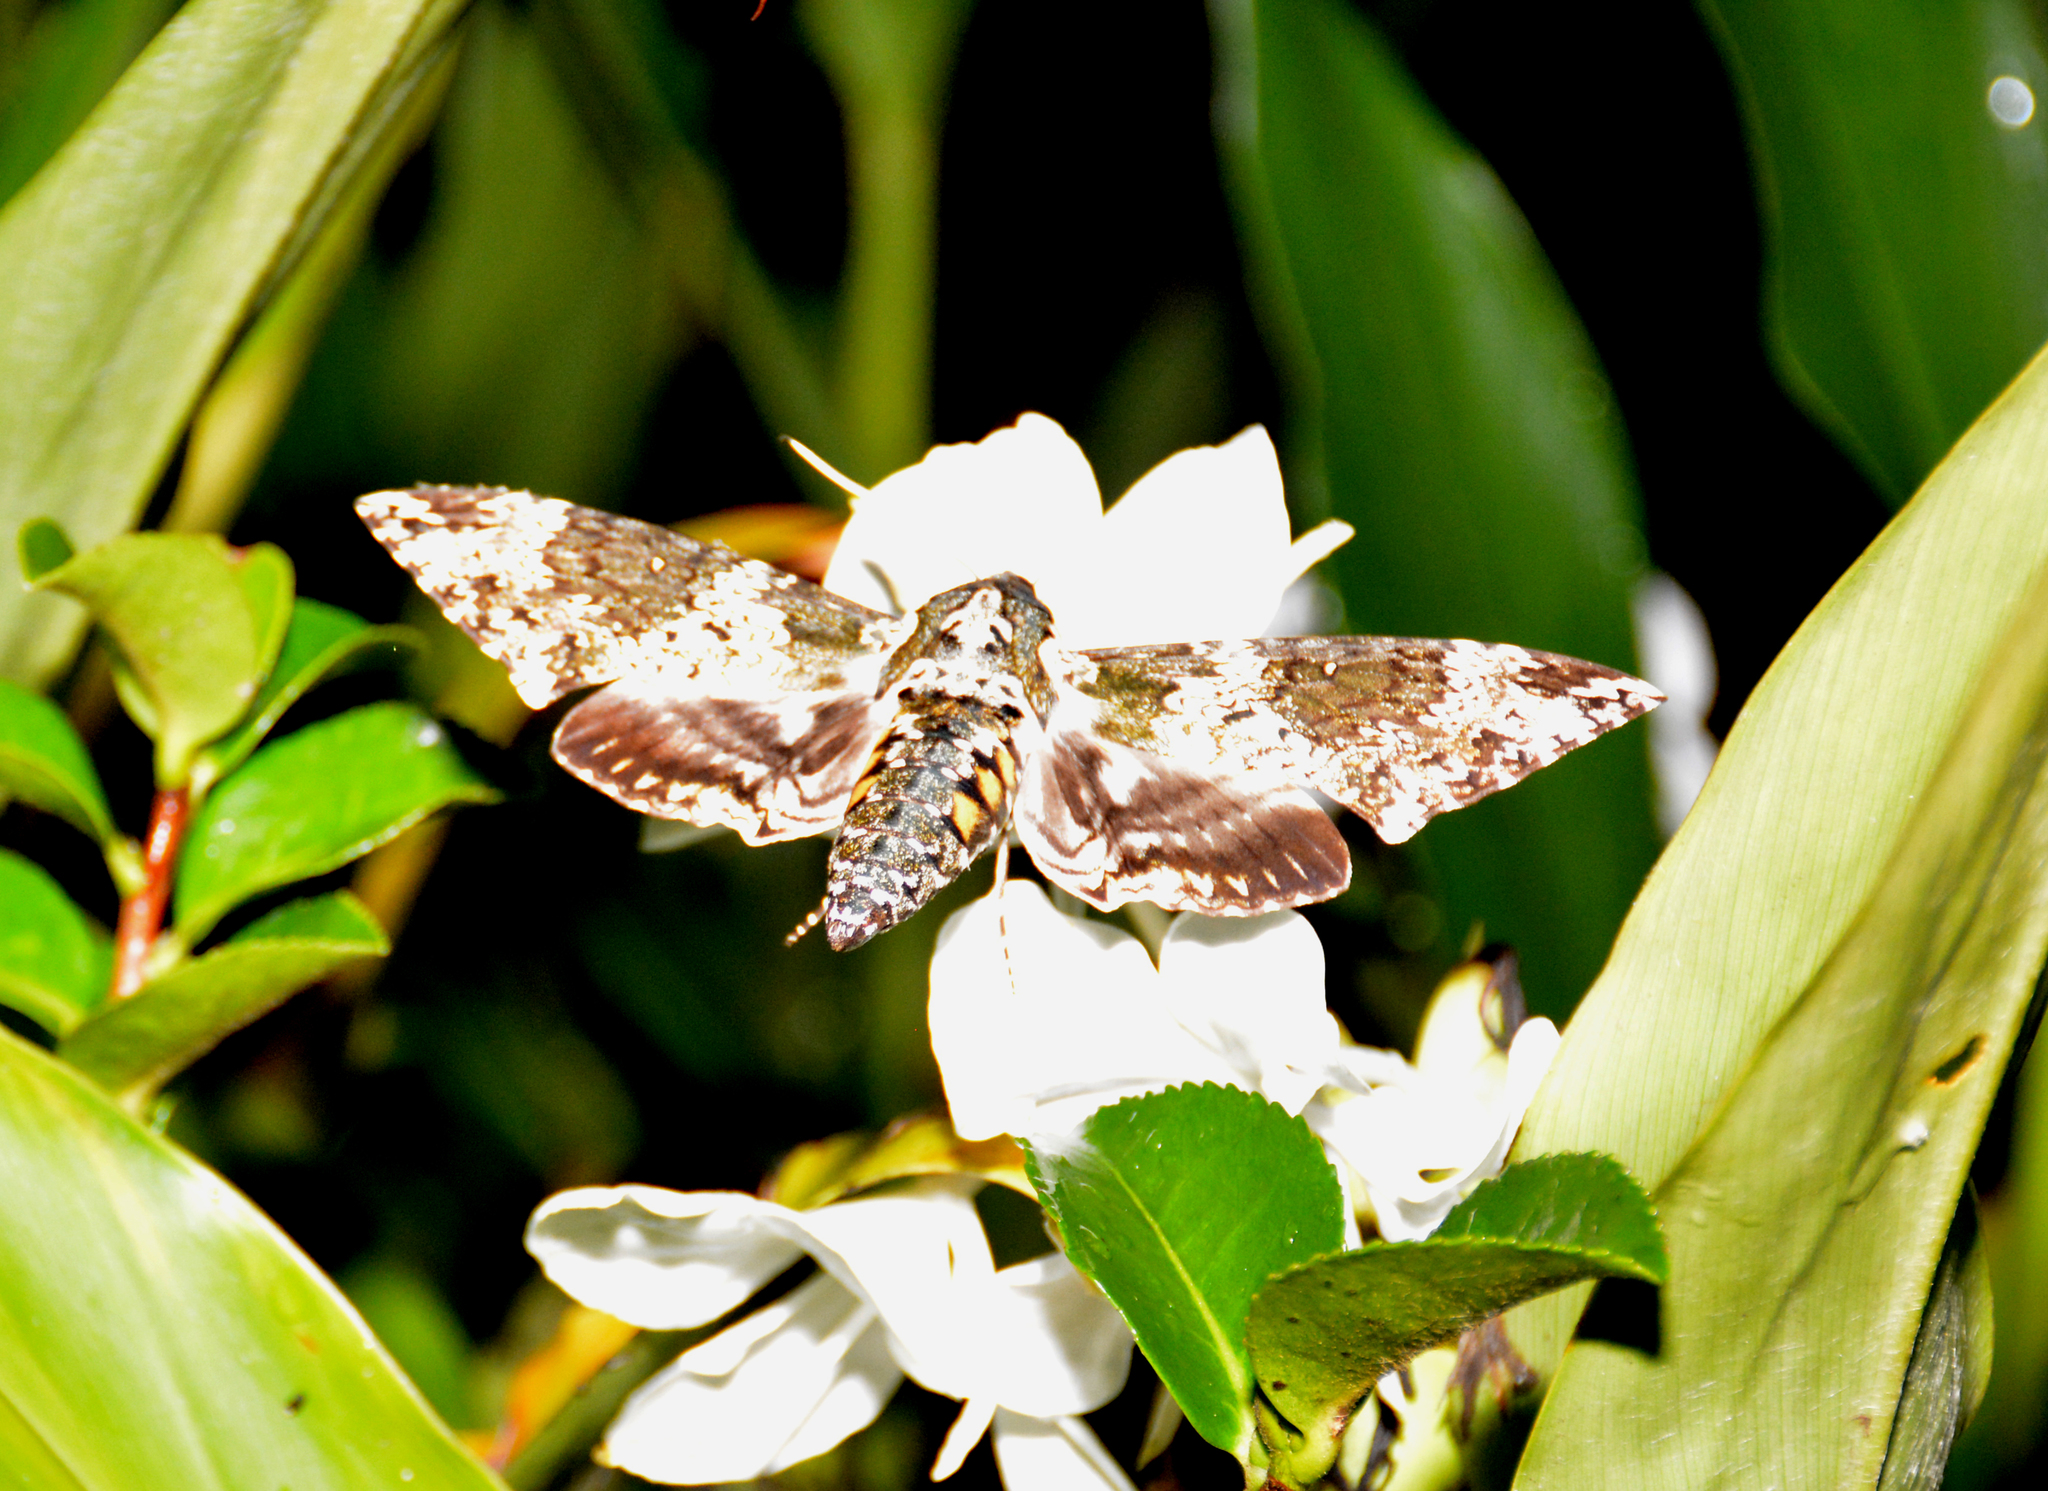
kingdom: Animalia
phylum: Arthropoda
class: Insecta
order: Lepidoptera
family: Sphingidae
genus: Manduca
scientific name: Manduca rustica
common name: Rustic sphinx
